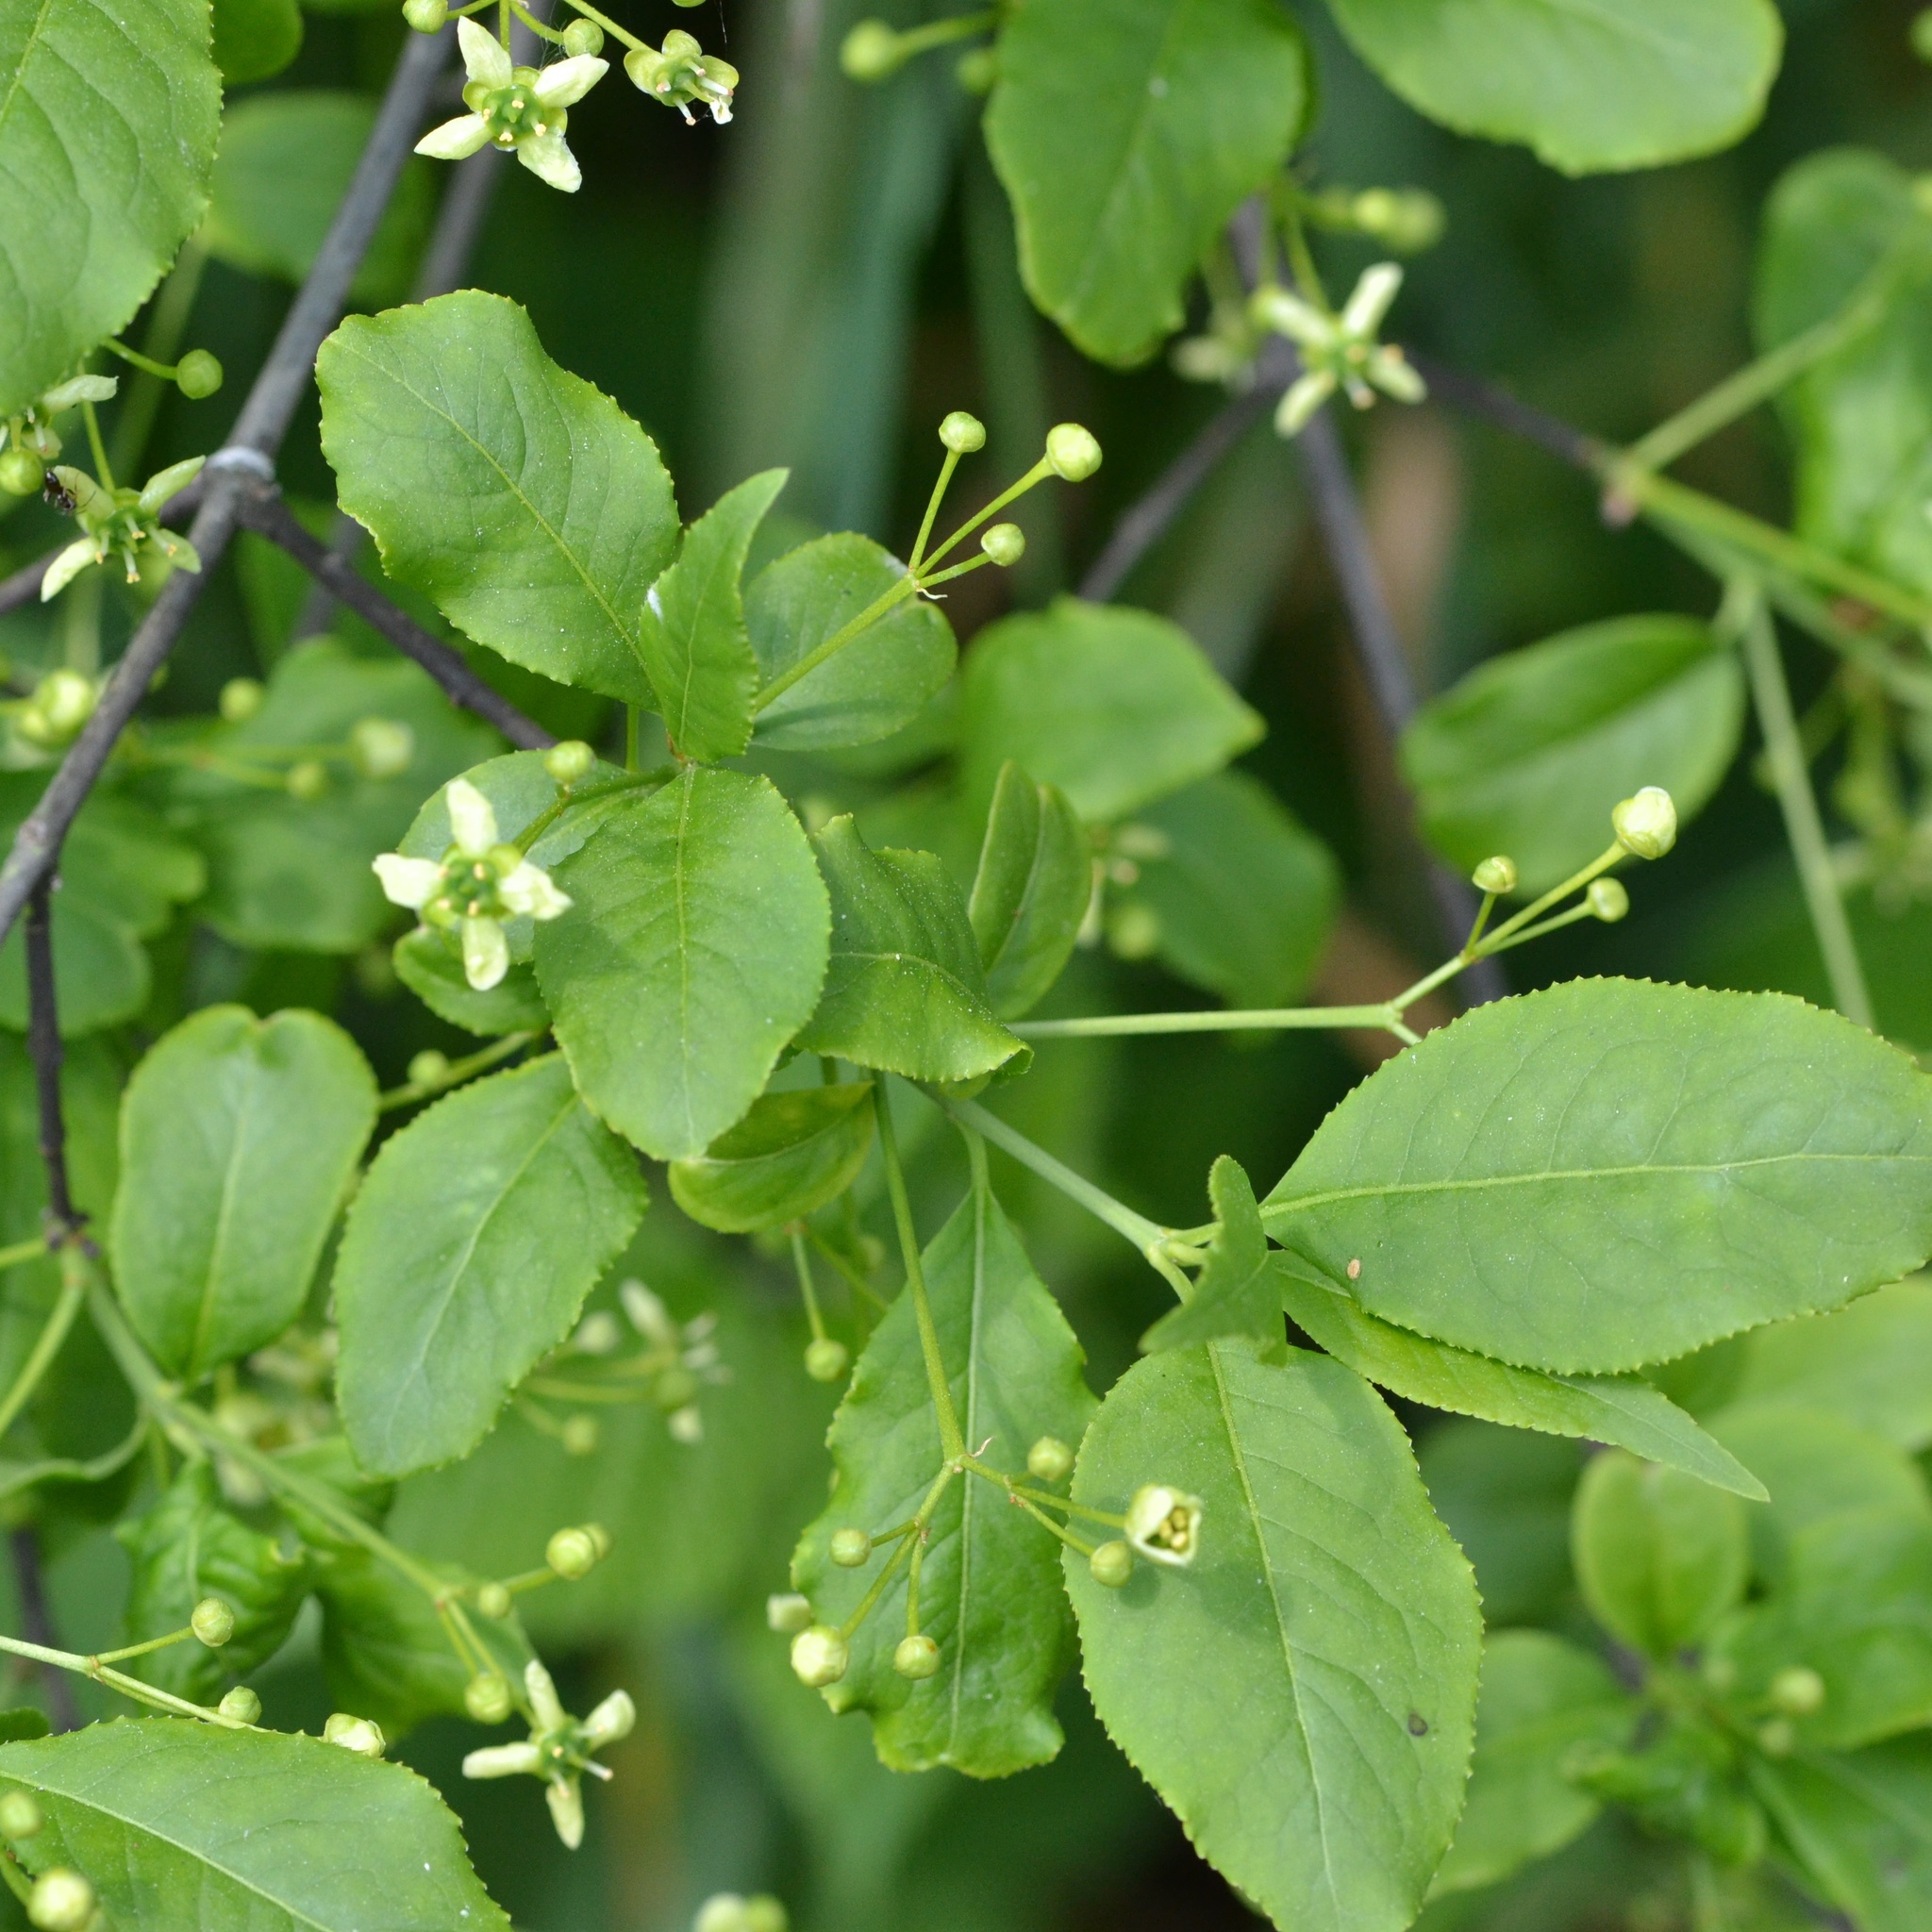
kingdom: Plantae
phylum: Tracheophyta
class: Magnoliopsida
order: Celastrales
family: Celastraceae
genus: Euonymus
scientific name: Euonymus europaeus
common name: Spindle
